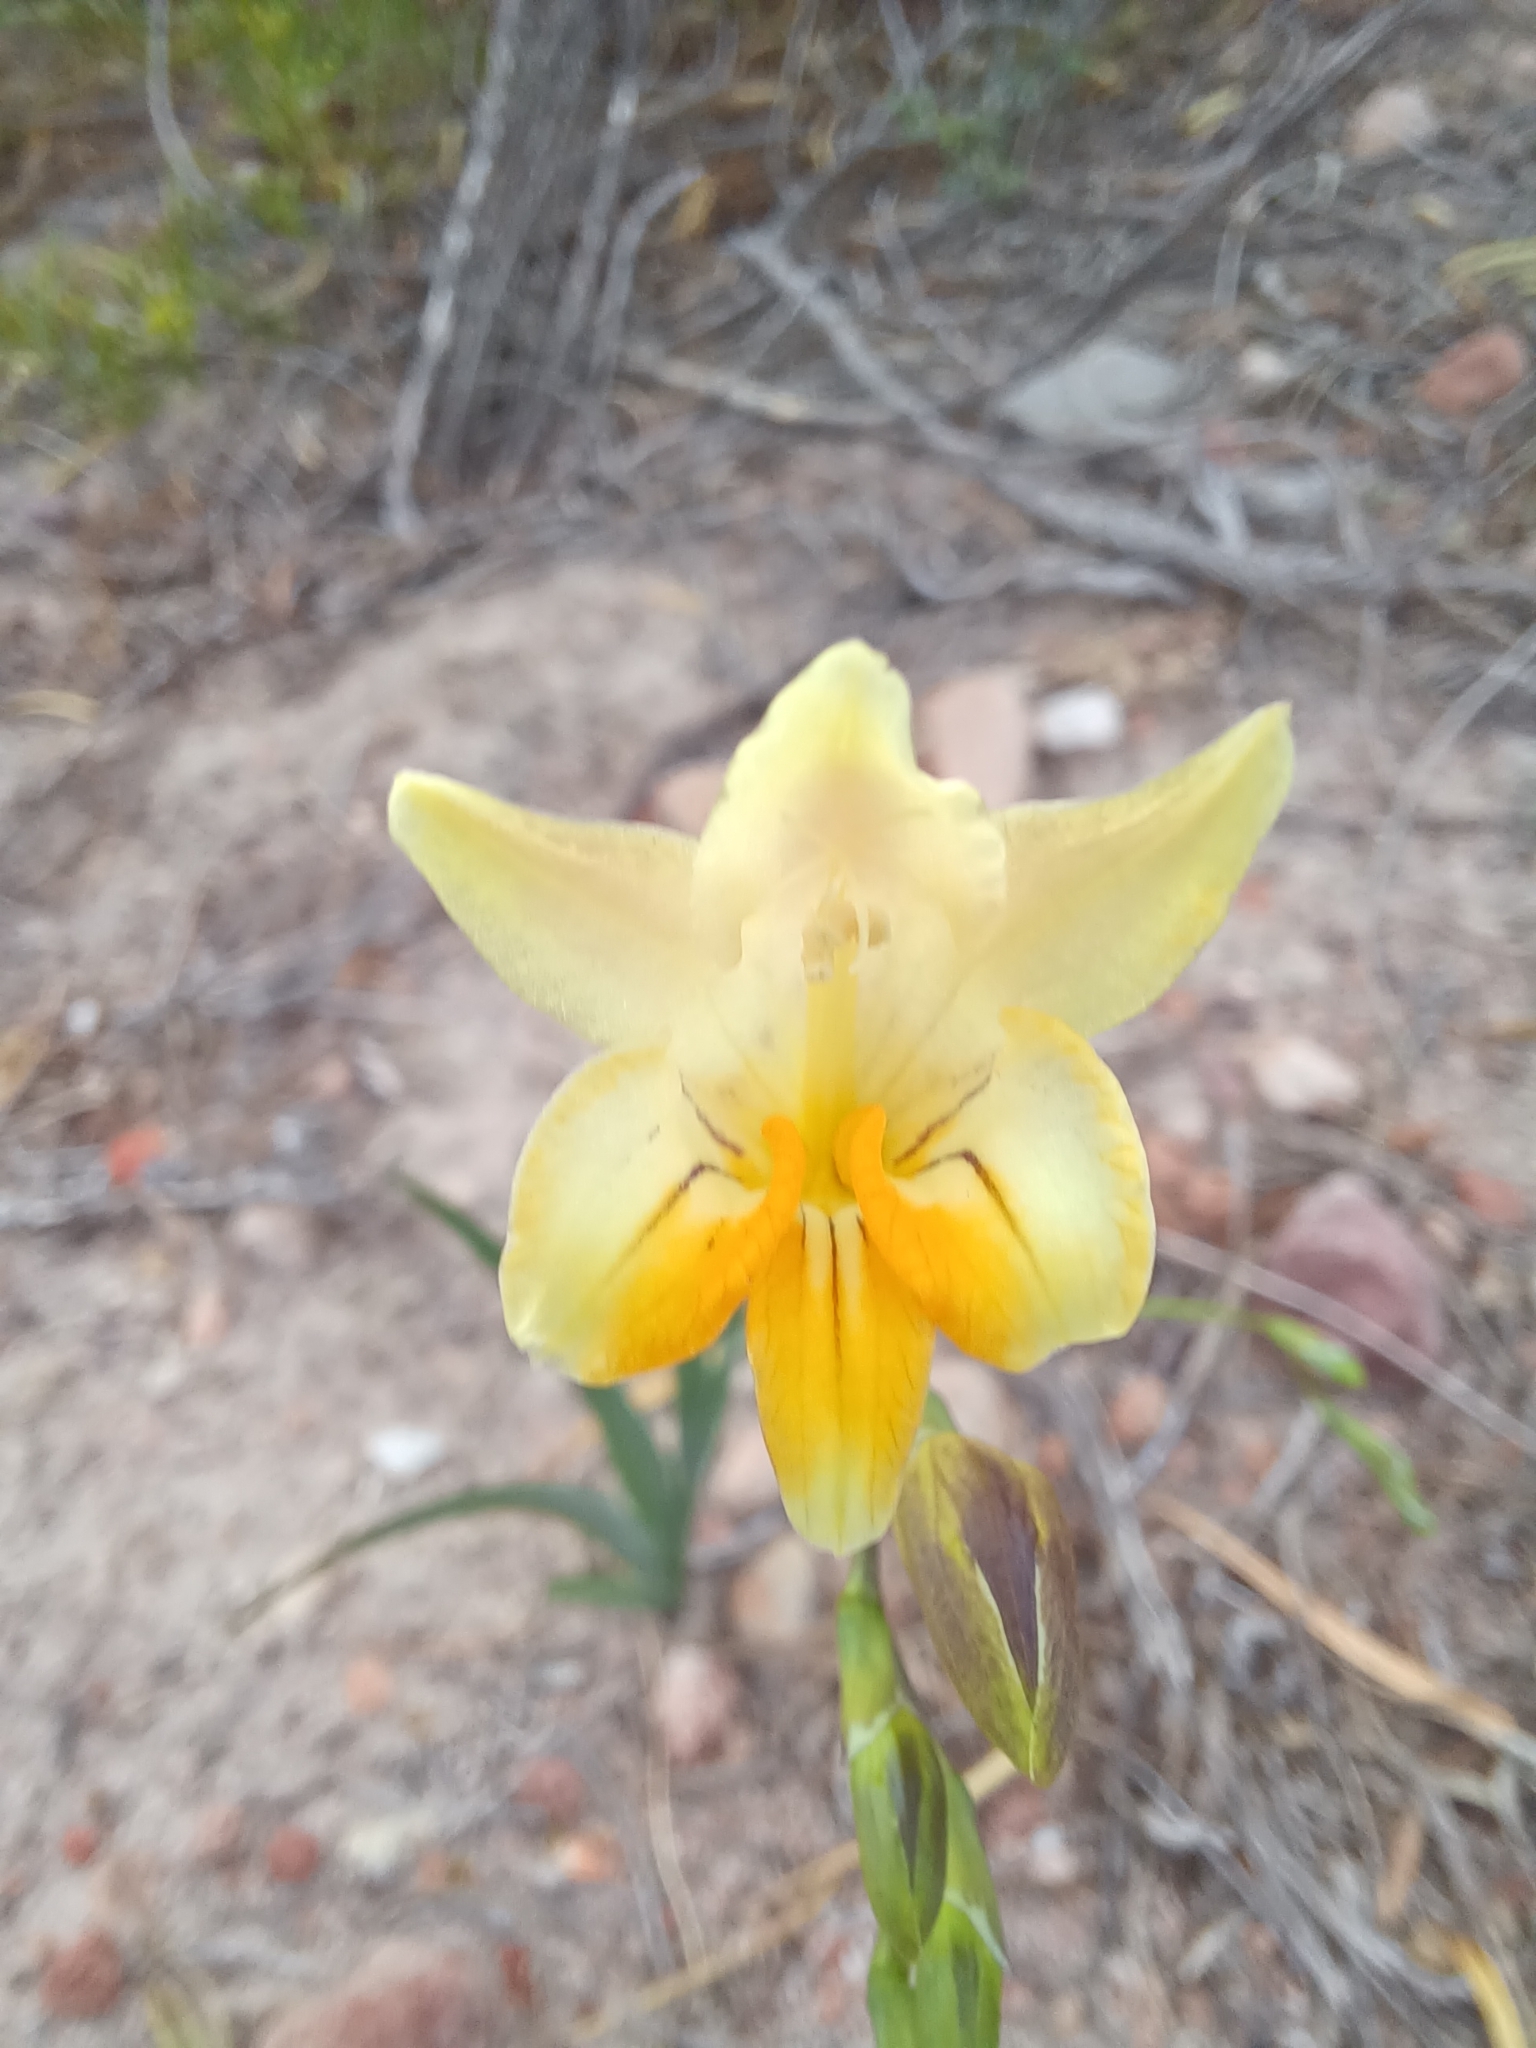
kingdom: Plantae
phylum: Tracheophyta
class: Liliopsida
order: Asparagales
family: Iridaceae
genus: Freesia
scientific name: Freesia refracta
